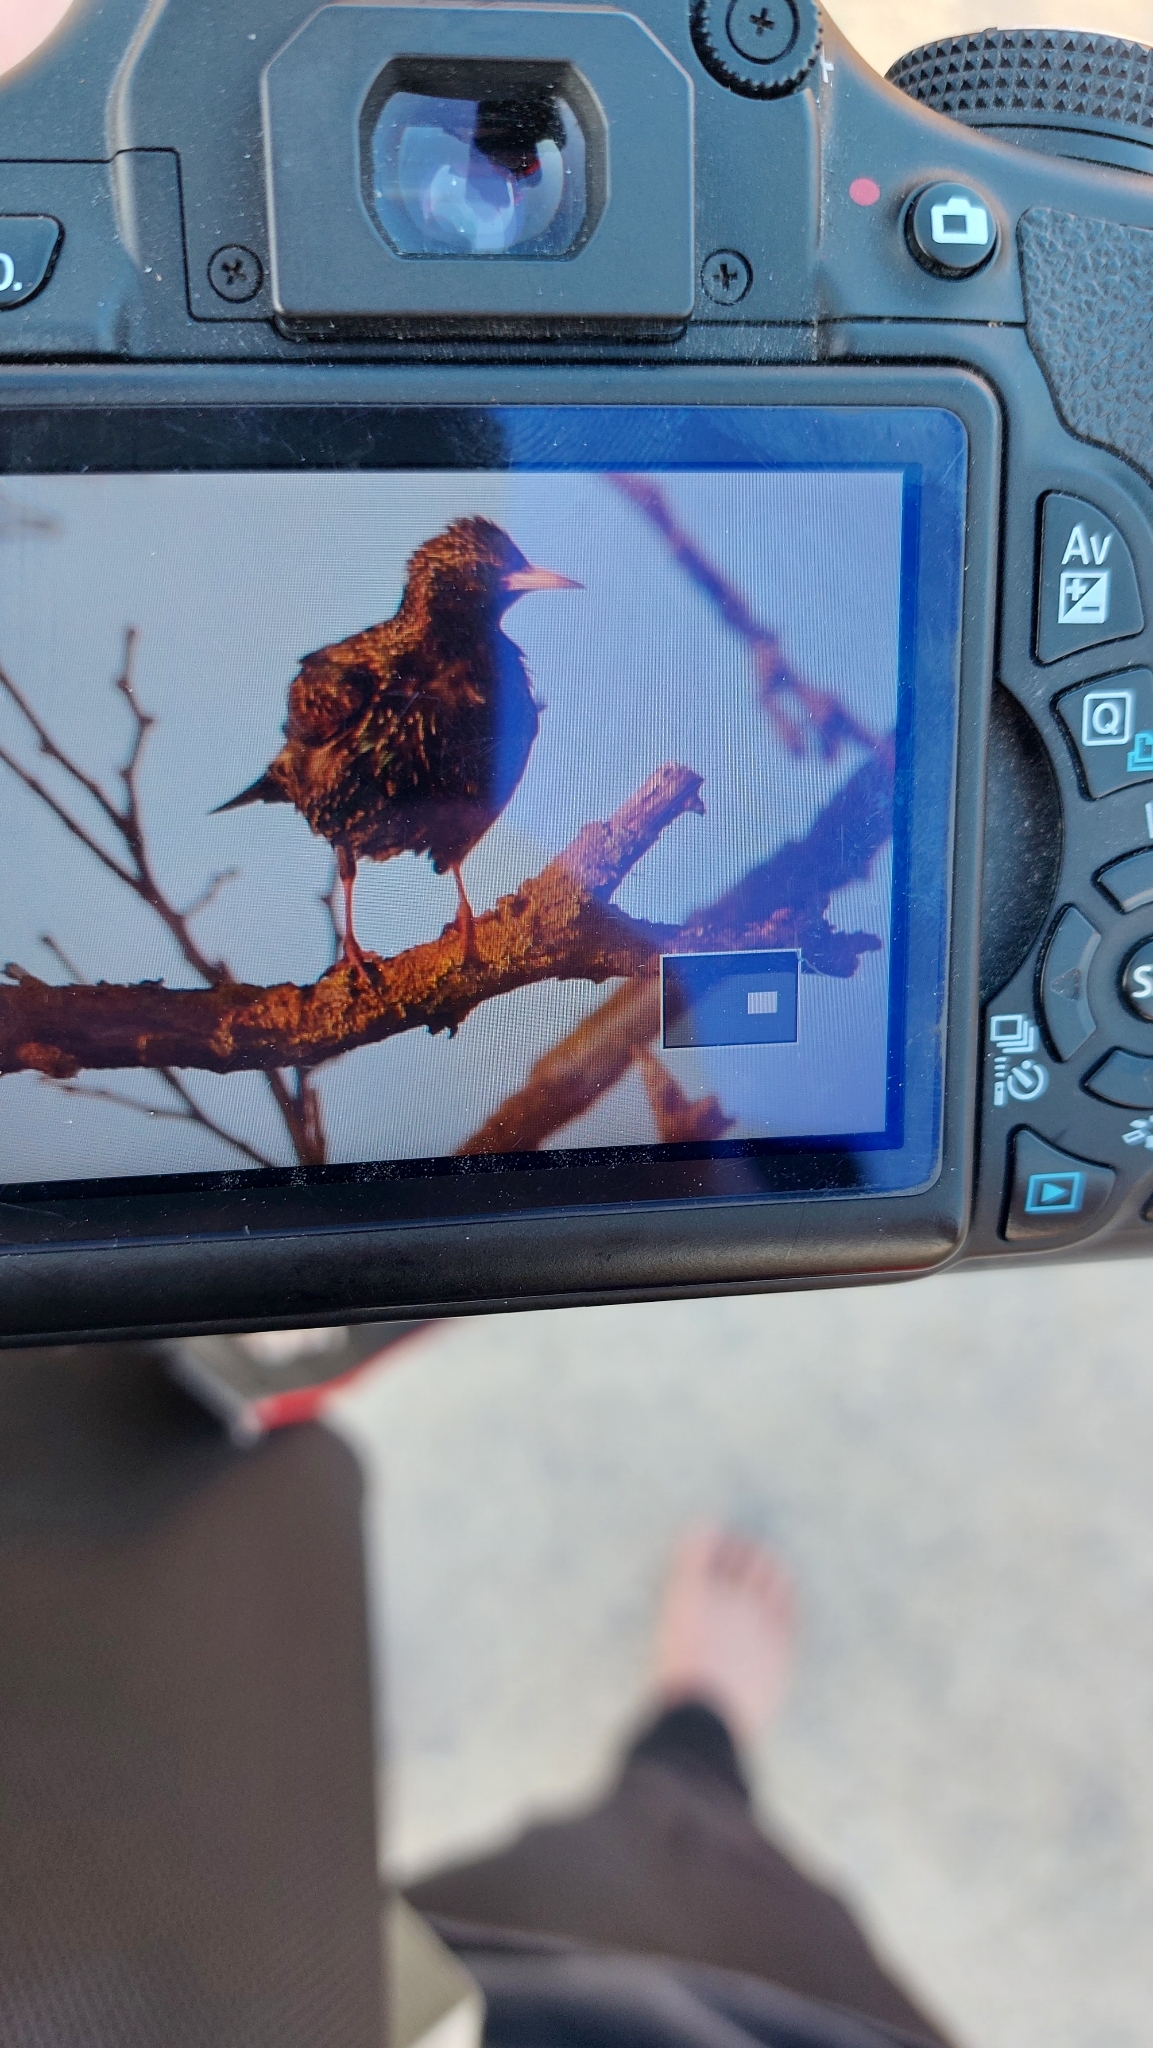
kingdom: Animalia
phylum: Chordata
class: Aves
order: Passeriformes
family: Sturnidae
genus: Sturnus
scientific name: Sturnus vulgaris
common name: Common starling
